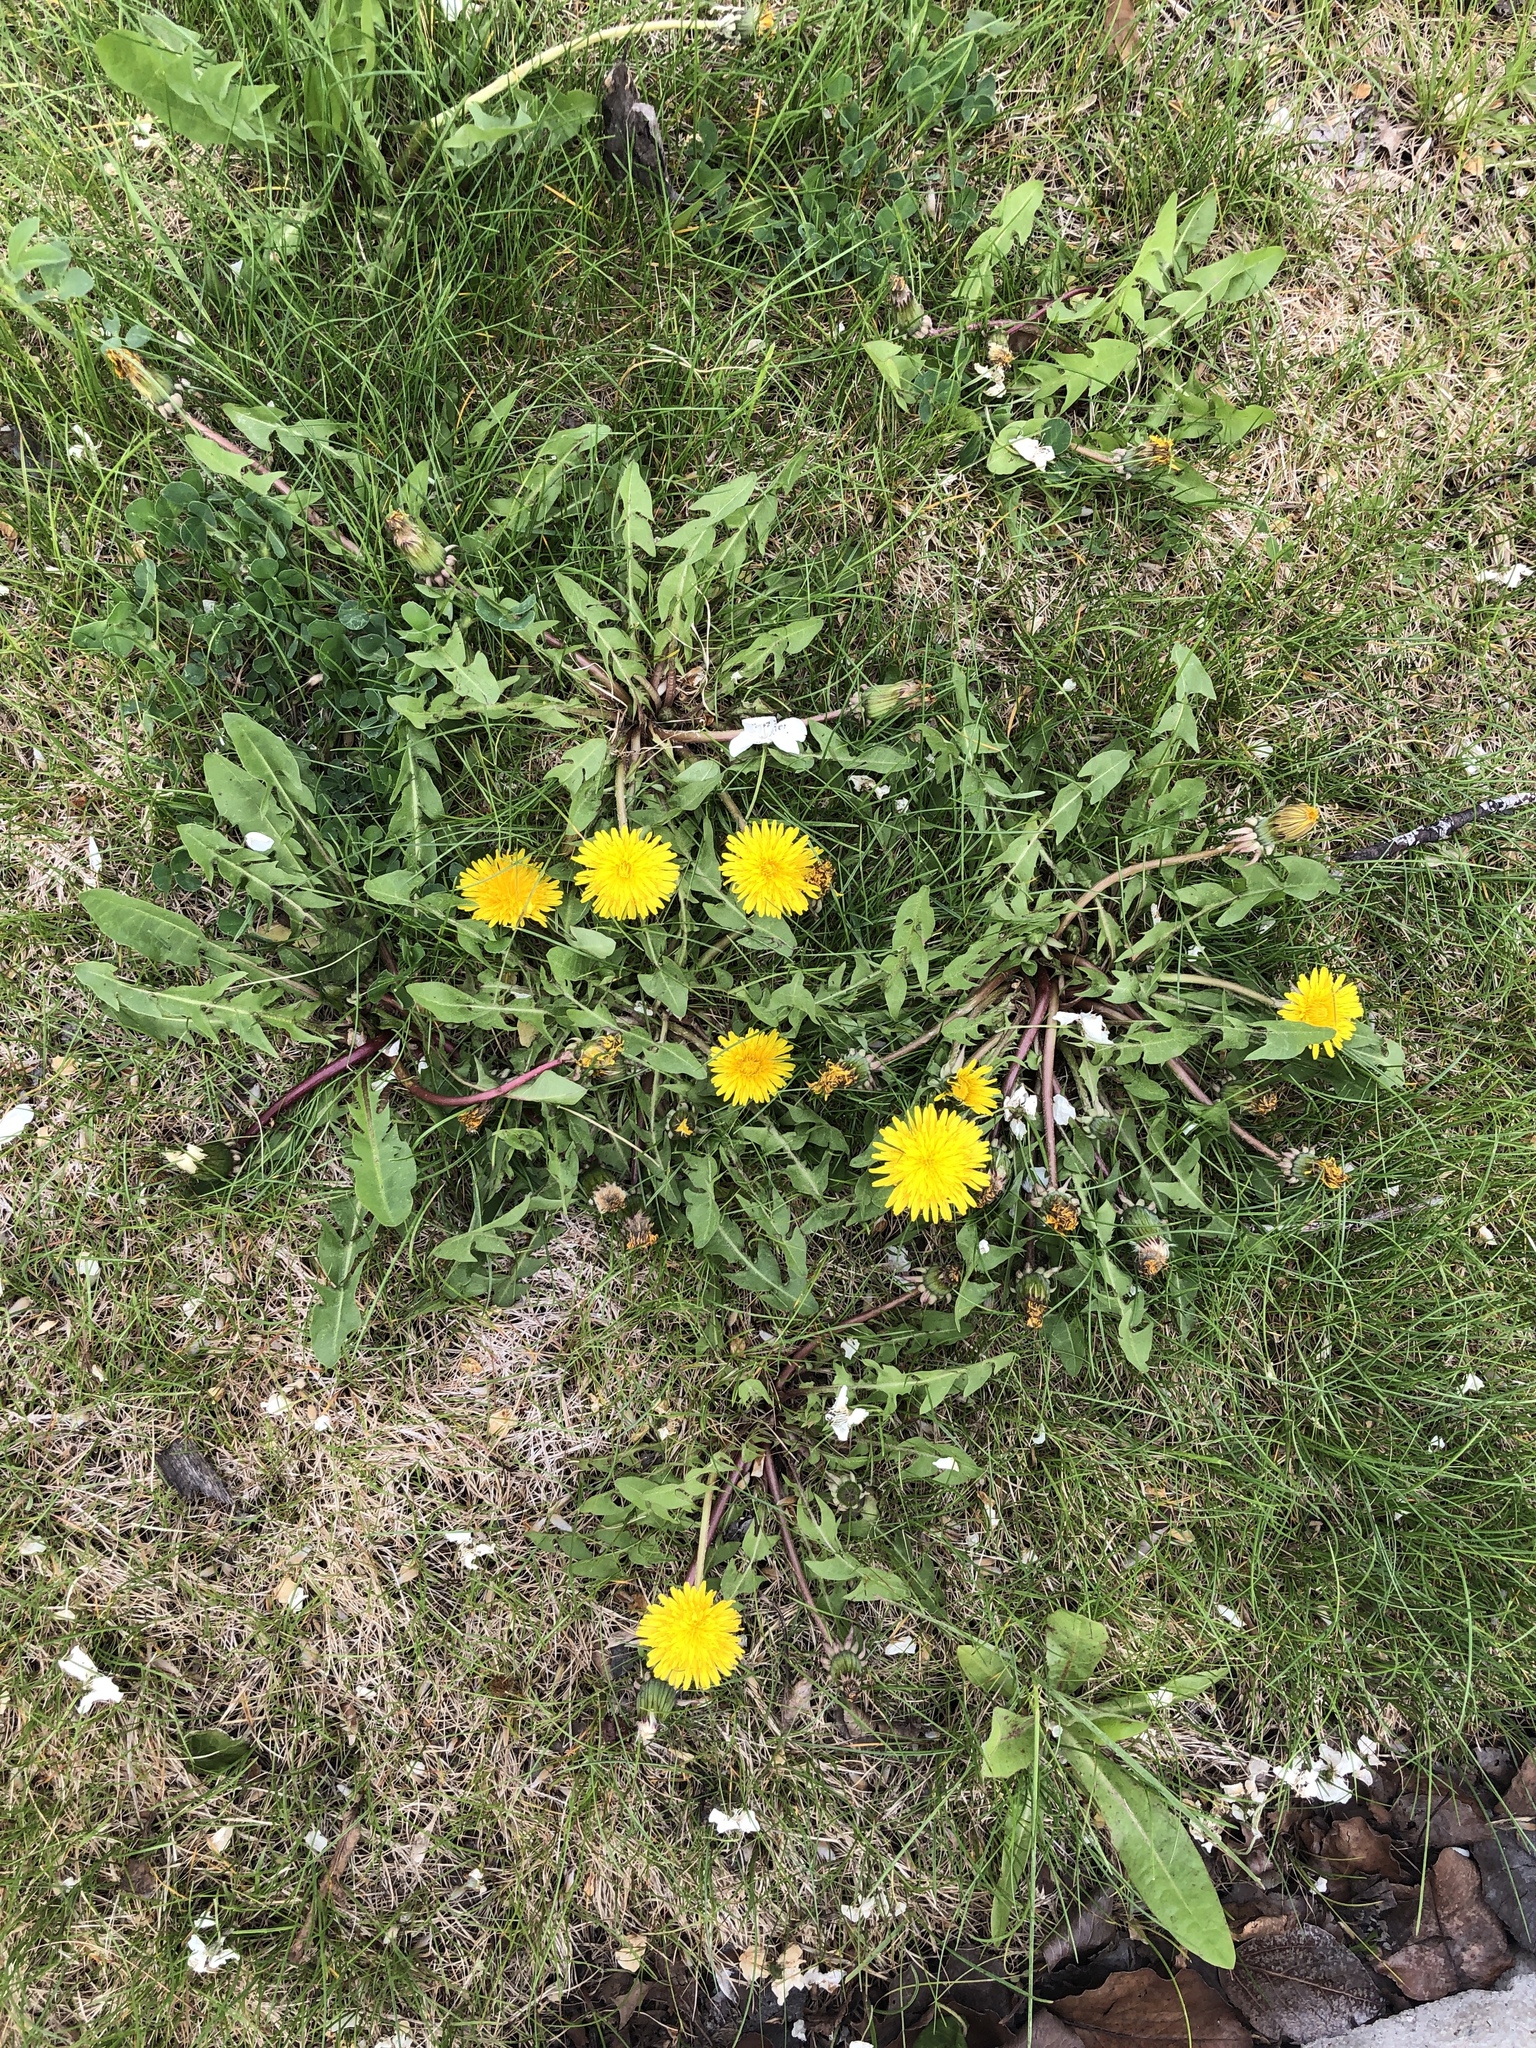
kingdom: Plantae
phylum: Tracheophyta
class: Magnoliopsida
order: Asterales
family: Asteraceae
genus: Taraxacum
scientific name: Taraxacum officinale
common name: Common dandelion
